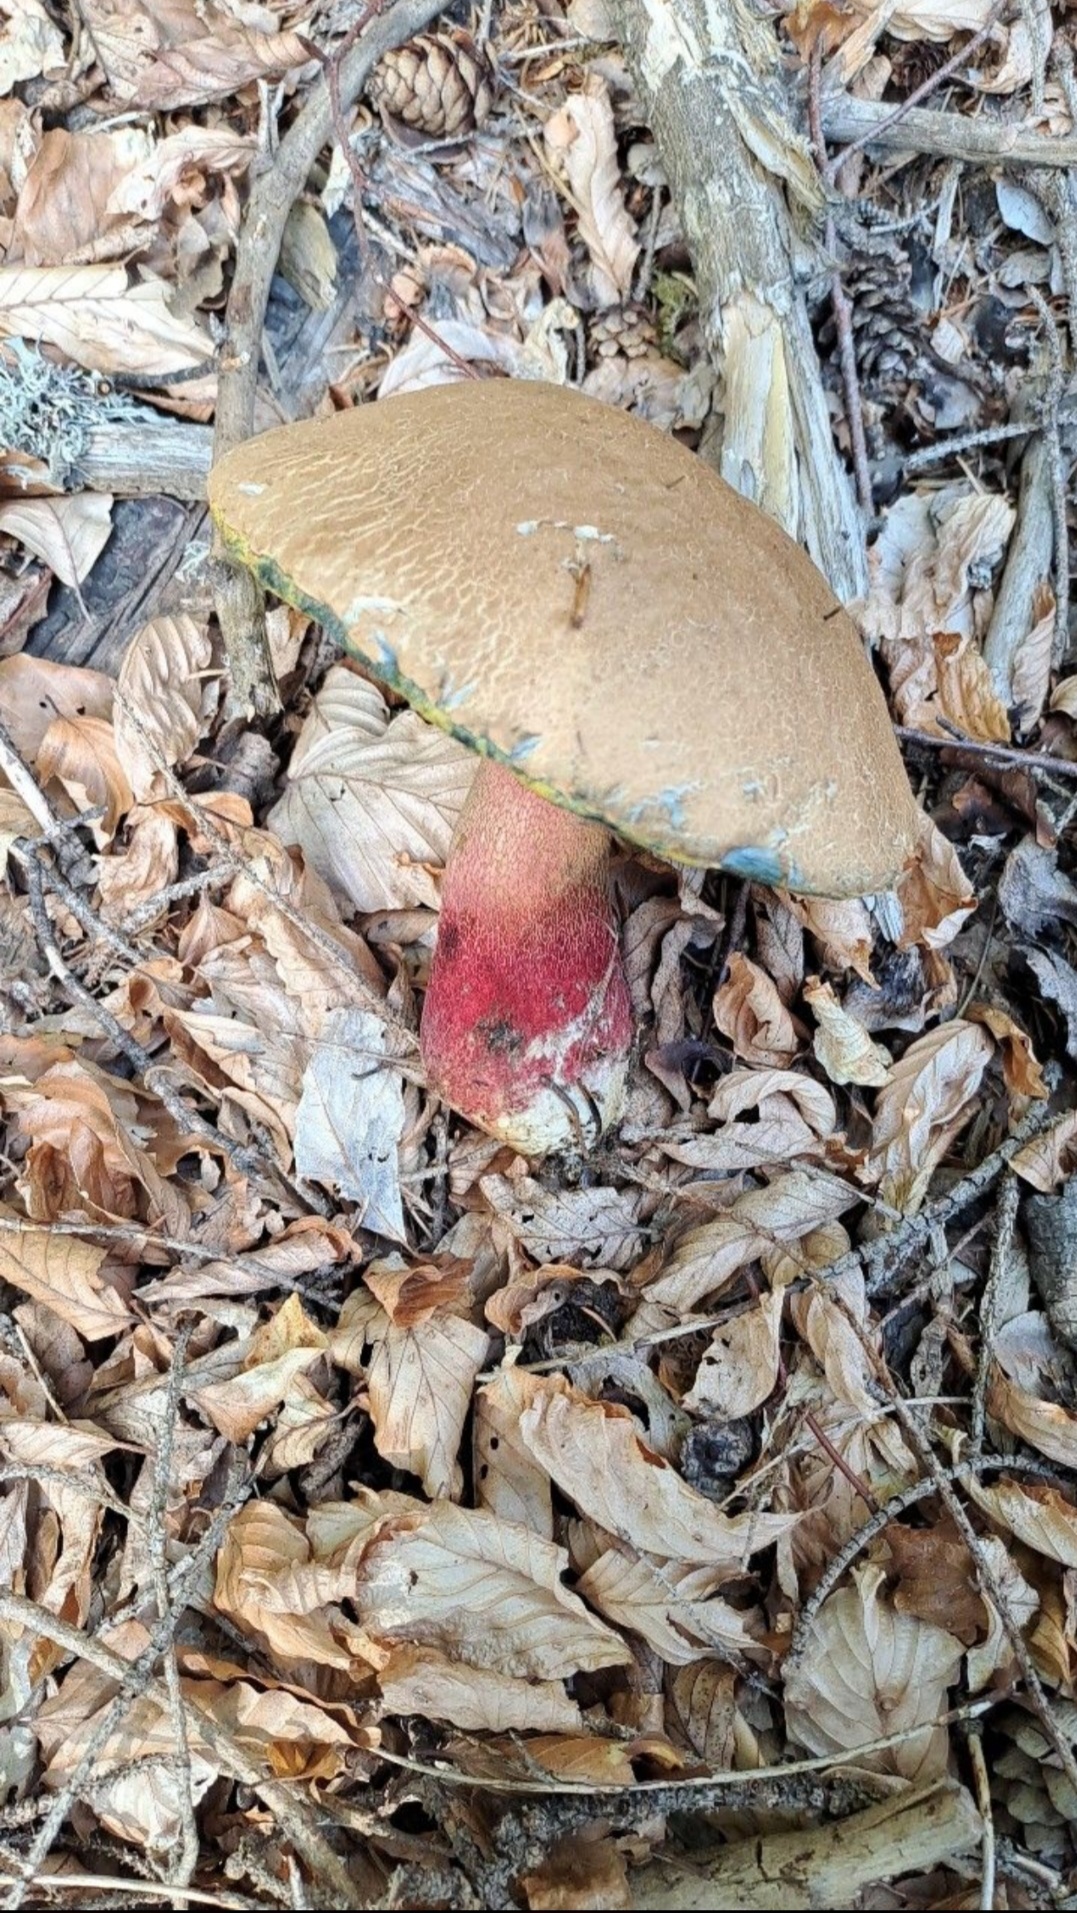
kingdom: Fungi
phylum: Basidiomycota
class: Agaricomycetes
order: Boletales
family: Boletaceae
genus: Caloboletus
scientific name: Caloboletus calopus
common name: Bitter beech bolete
